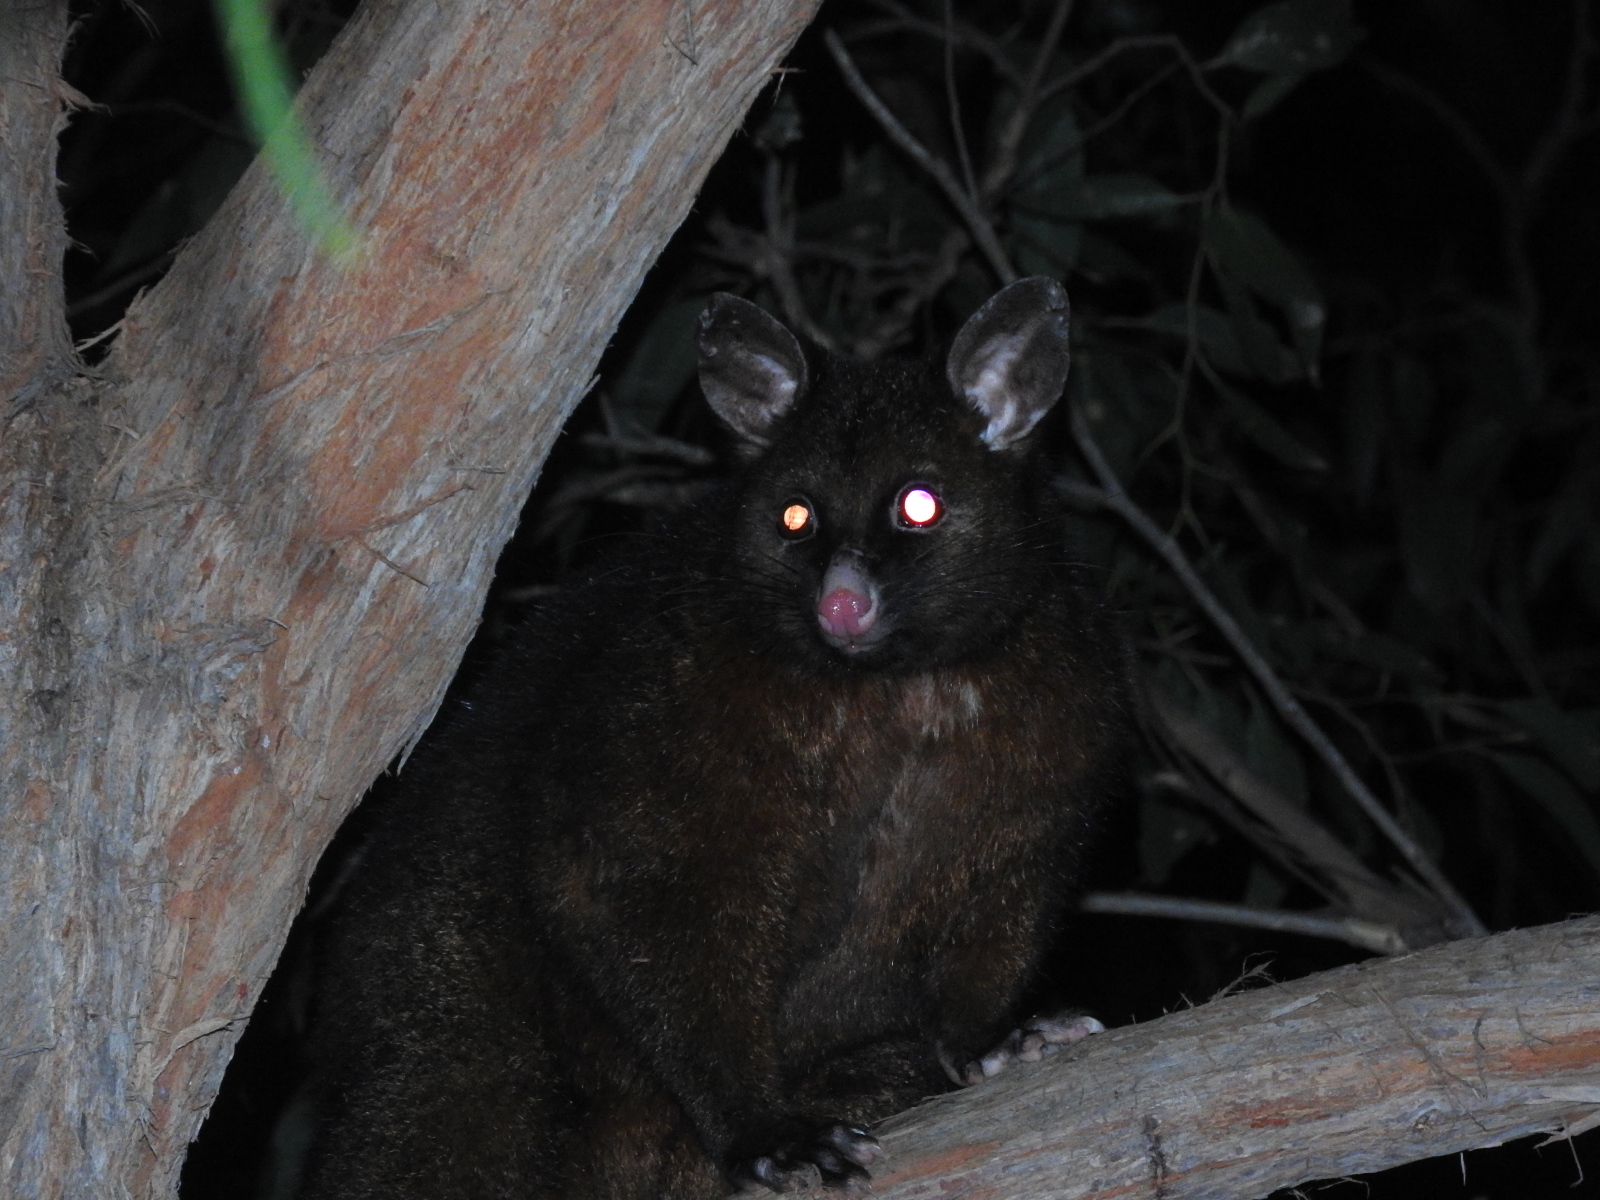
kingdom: Animalia
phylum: Chordata
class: Mammalia
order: Diprotodontia
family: Phalangeridae
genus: Trichosurus
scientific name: Trichosurus vulpecula
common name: Common brushtail
